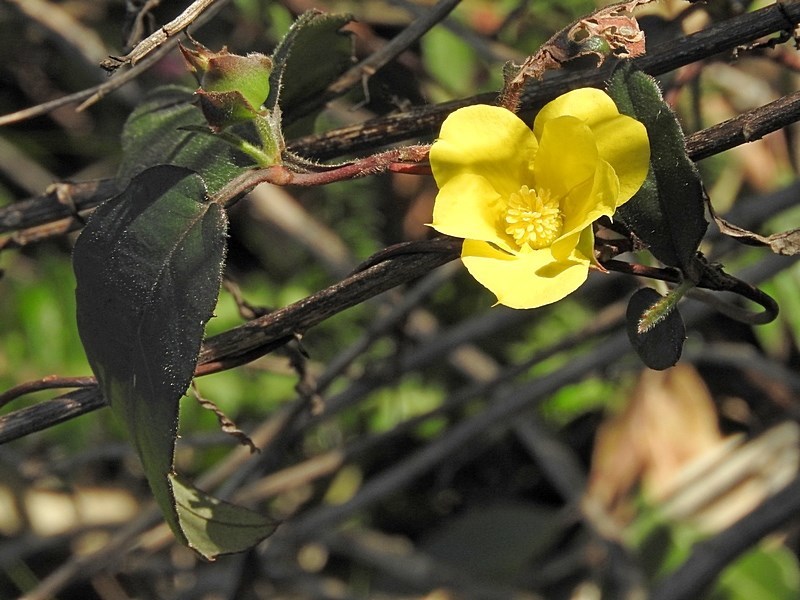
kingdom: Plantae
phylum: Tracheophyta
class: Magnoliopsida
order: Dilleniales
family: Dilleniaceae
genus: Hibbertia
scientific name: Hibbertia dentata
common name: Trailing guinea-flower
